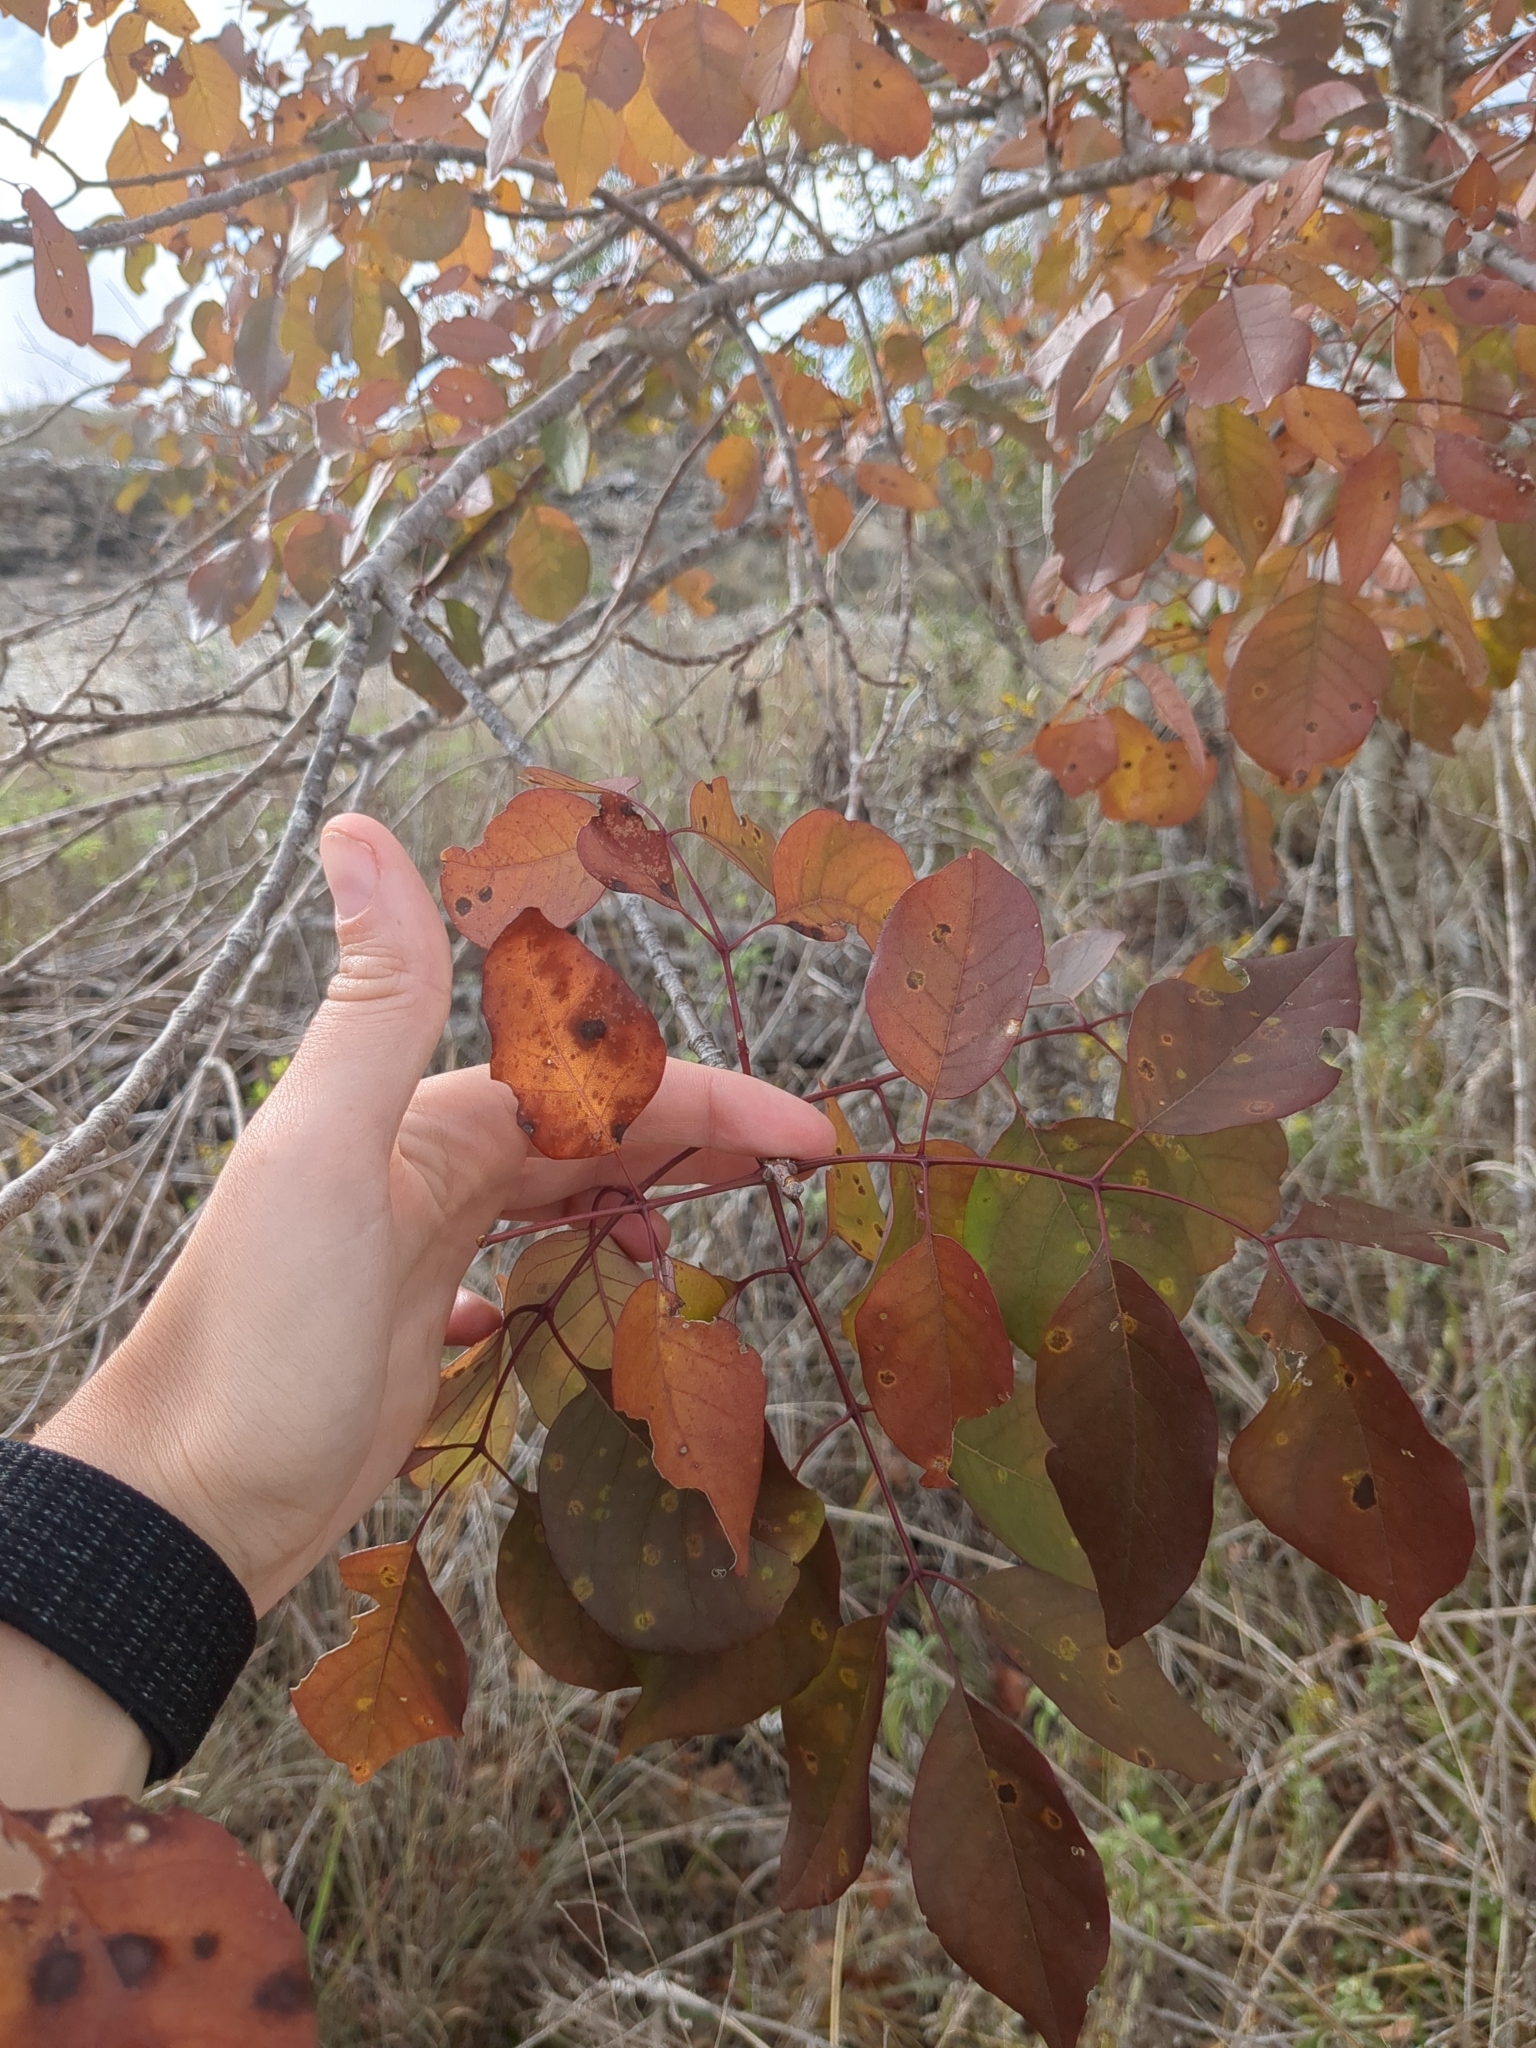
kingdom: Plantae
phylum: Tracheophyta
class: Magnoliopsida
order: Lamiales
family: Oleaceae
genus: Fraxinus
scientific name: Fraxinus albicans
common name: Texas ash
